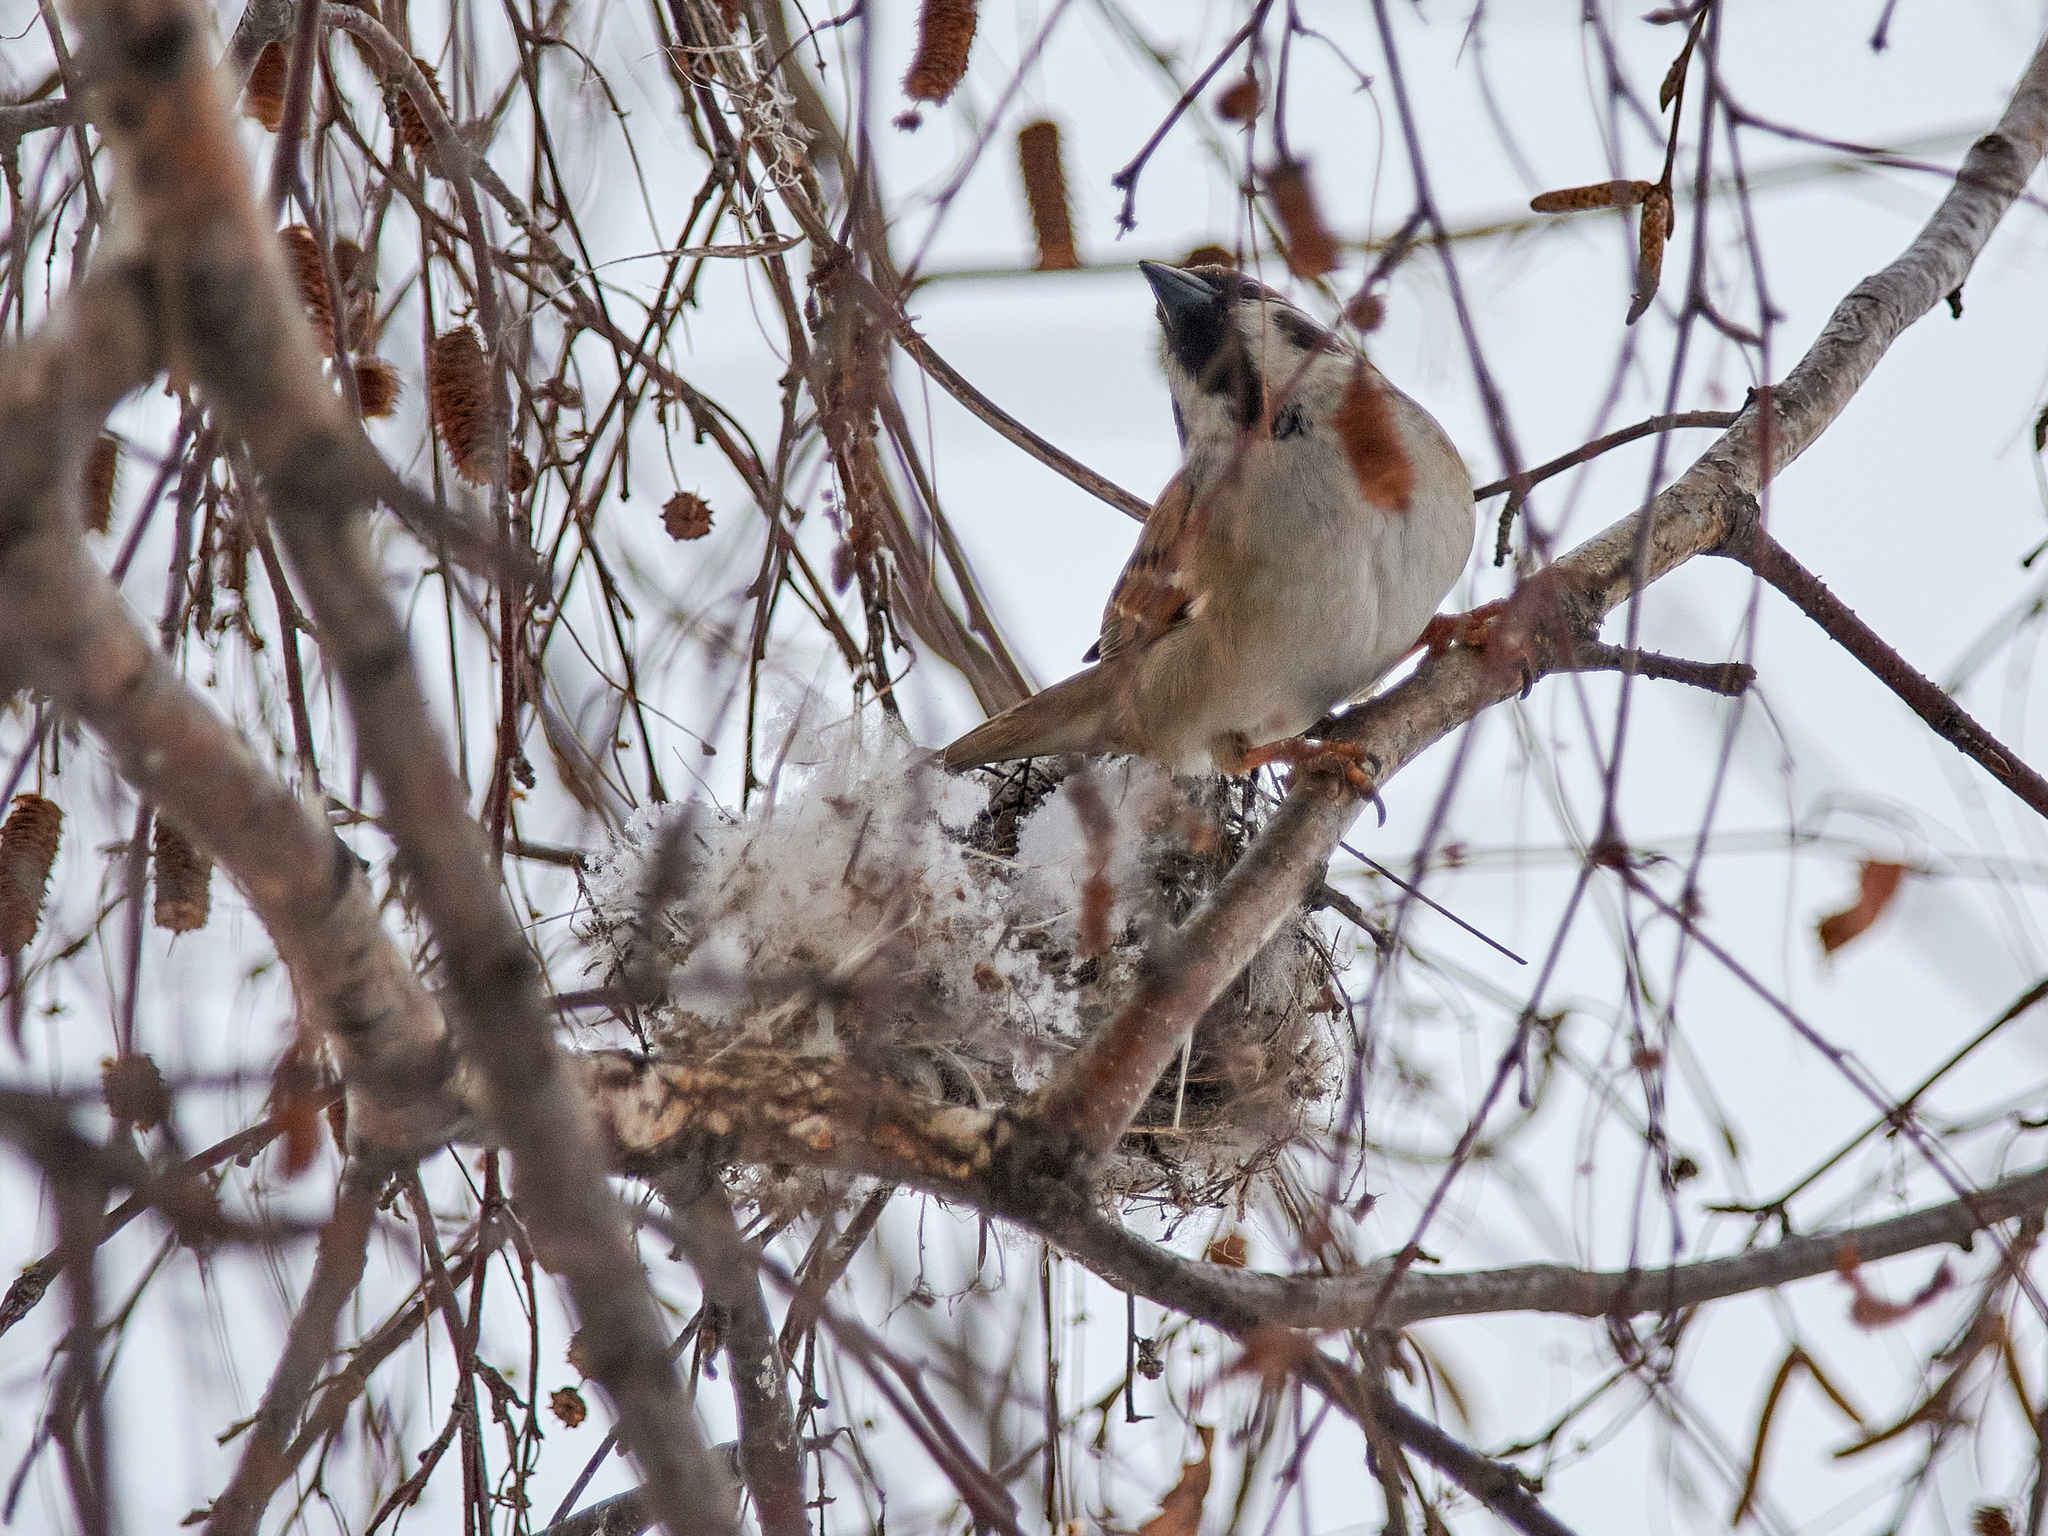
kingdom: Animalia
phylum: Chordata
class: Aves
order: Passeriformes
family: Passeridae
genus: Passer
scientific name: Passer montanus
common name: Eurasian tree sparrow
